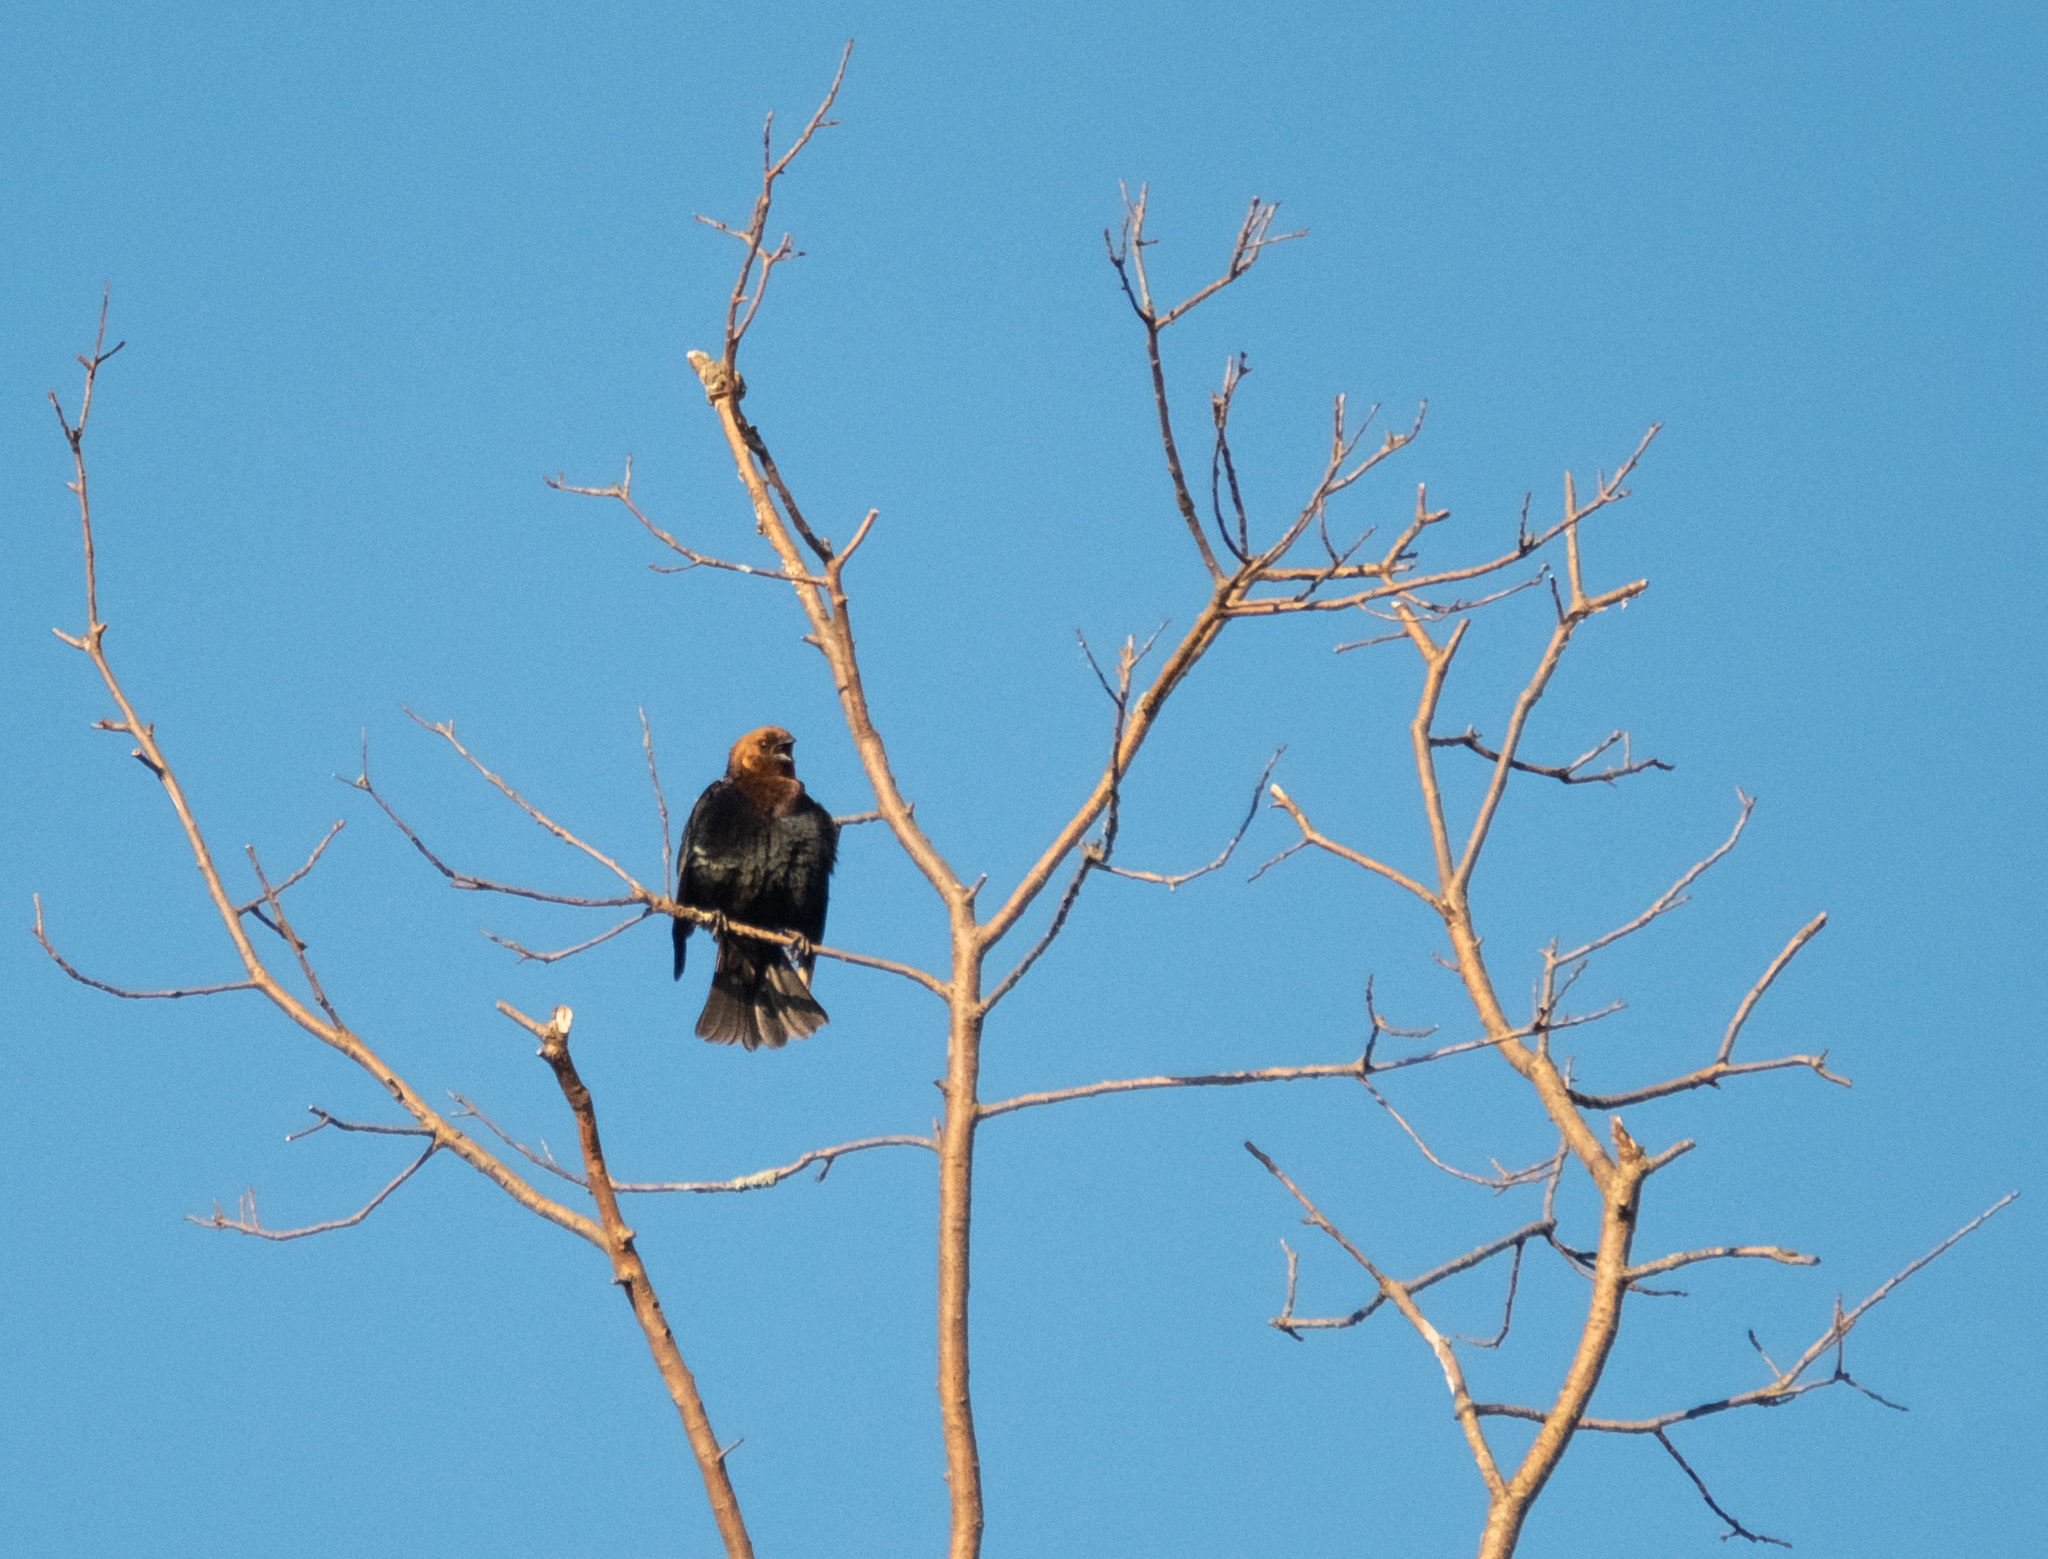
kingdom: Animalia
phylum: Chordata
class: Aves
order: Passeriformes
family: Icteridae
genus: Molothrus
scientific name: Molothrus ater
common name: Brown-headed cowbird
